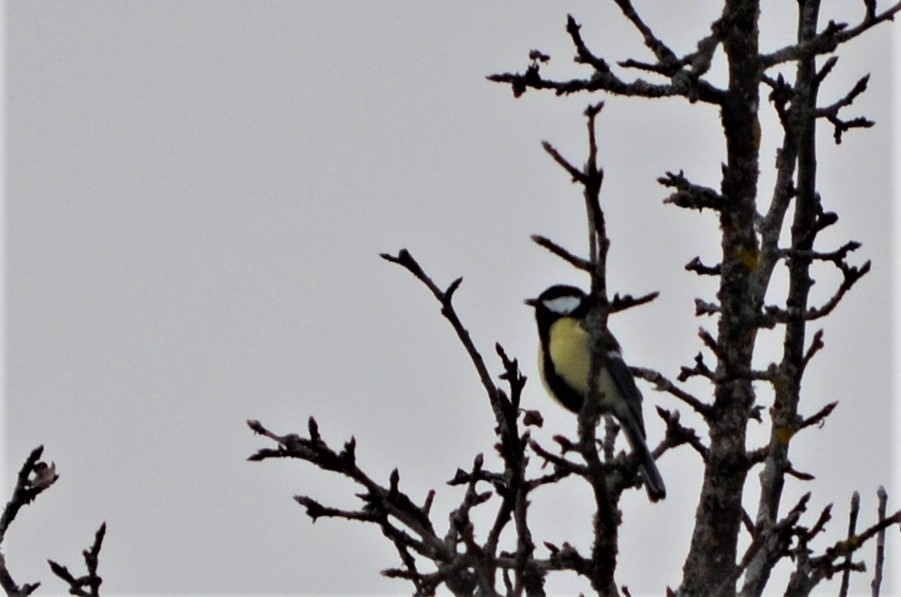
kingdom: Animalia
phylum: Chordata
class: Aves
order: Passeriformes
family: Paridae
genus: Parus
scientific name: Parus major
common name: Great tit
